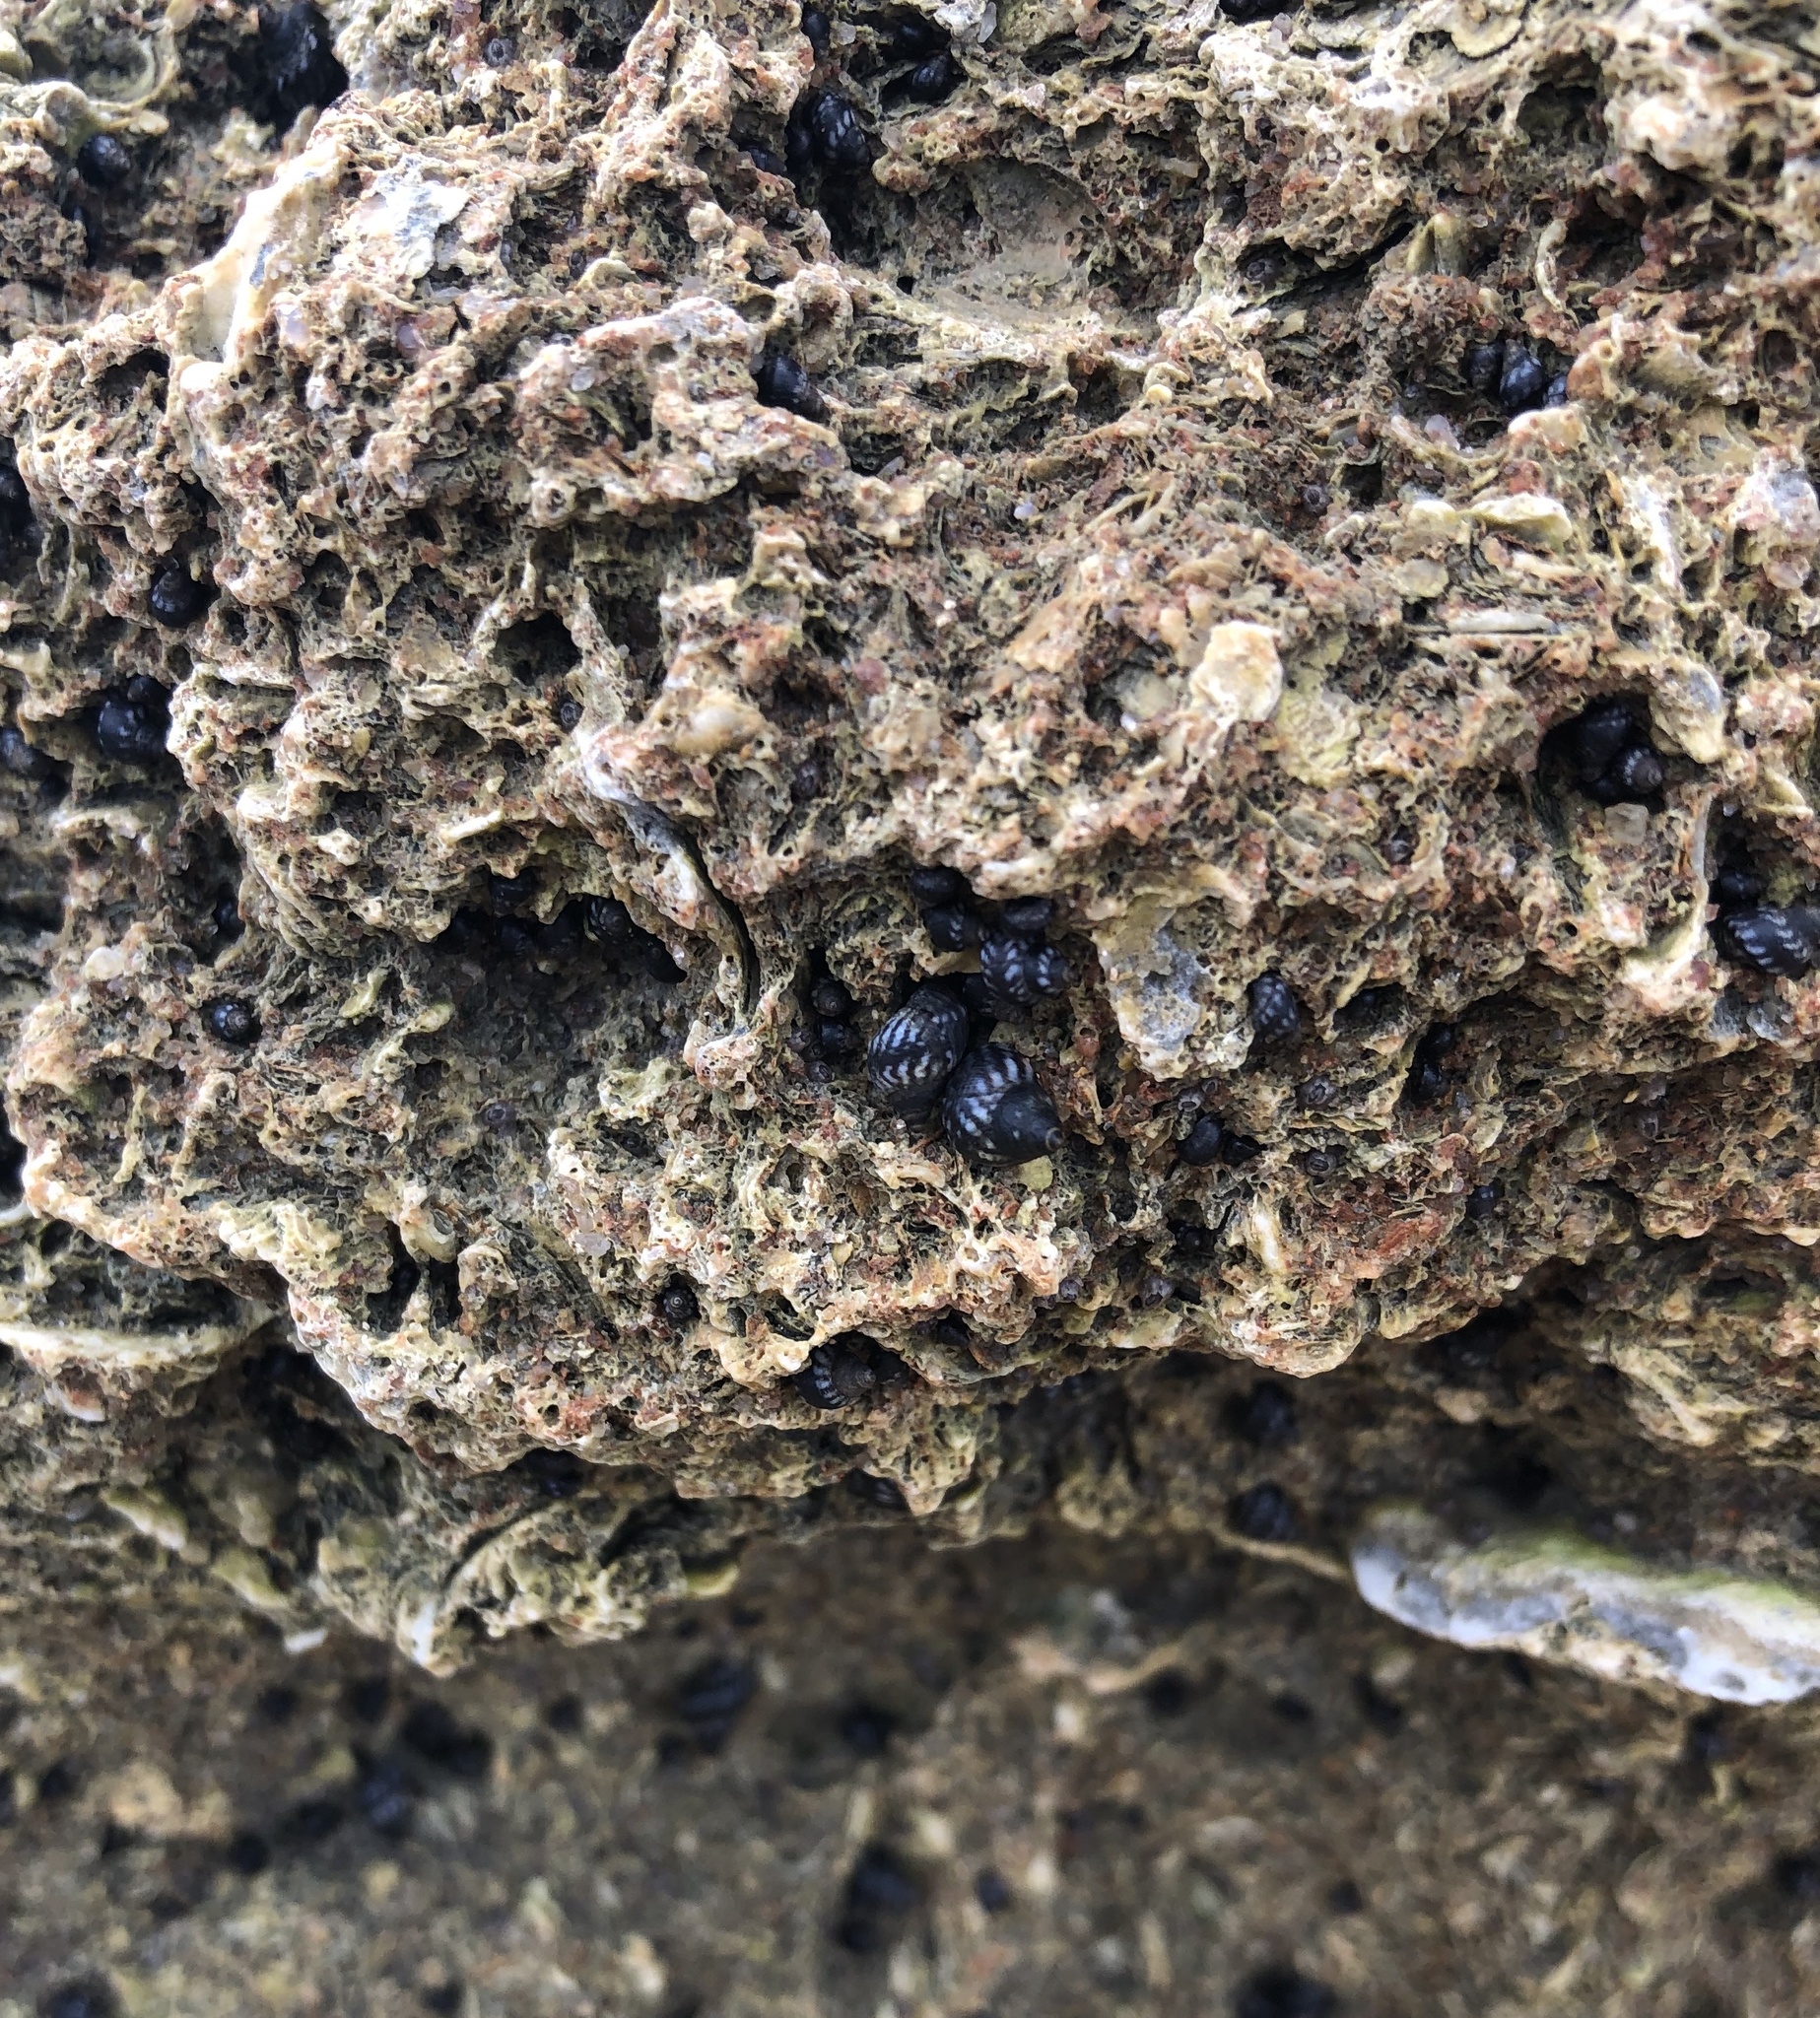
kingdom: Animalia
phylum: Mollusca
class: Gastropoda
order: Littorinimorpha
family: Littorinidae
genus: Echinolittorina
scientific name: Echinolittorina placida
